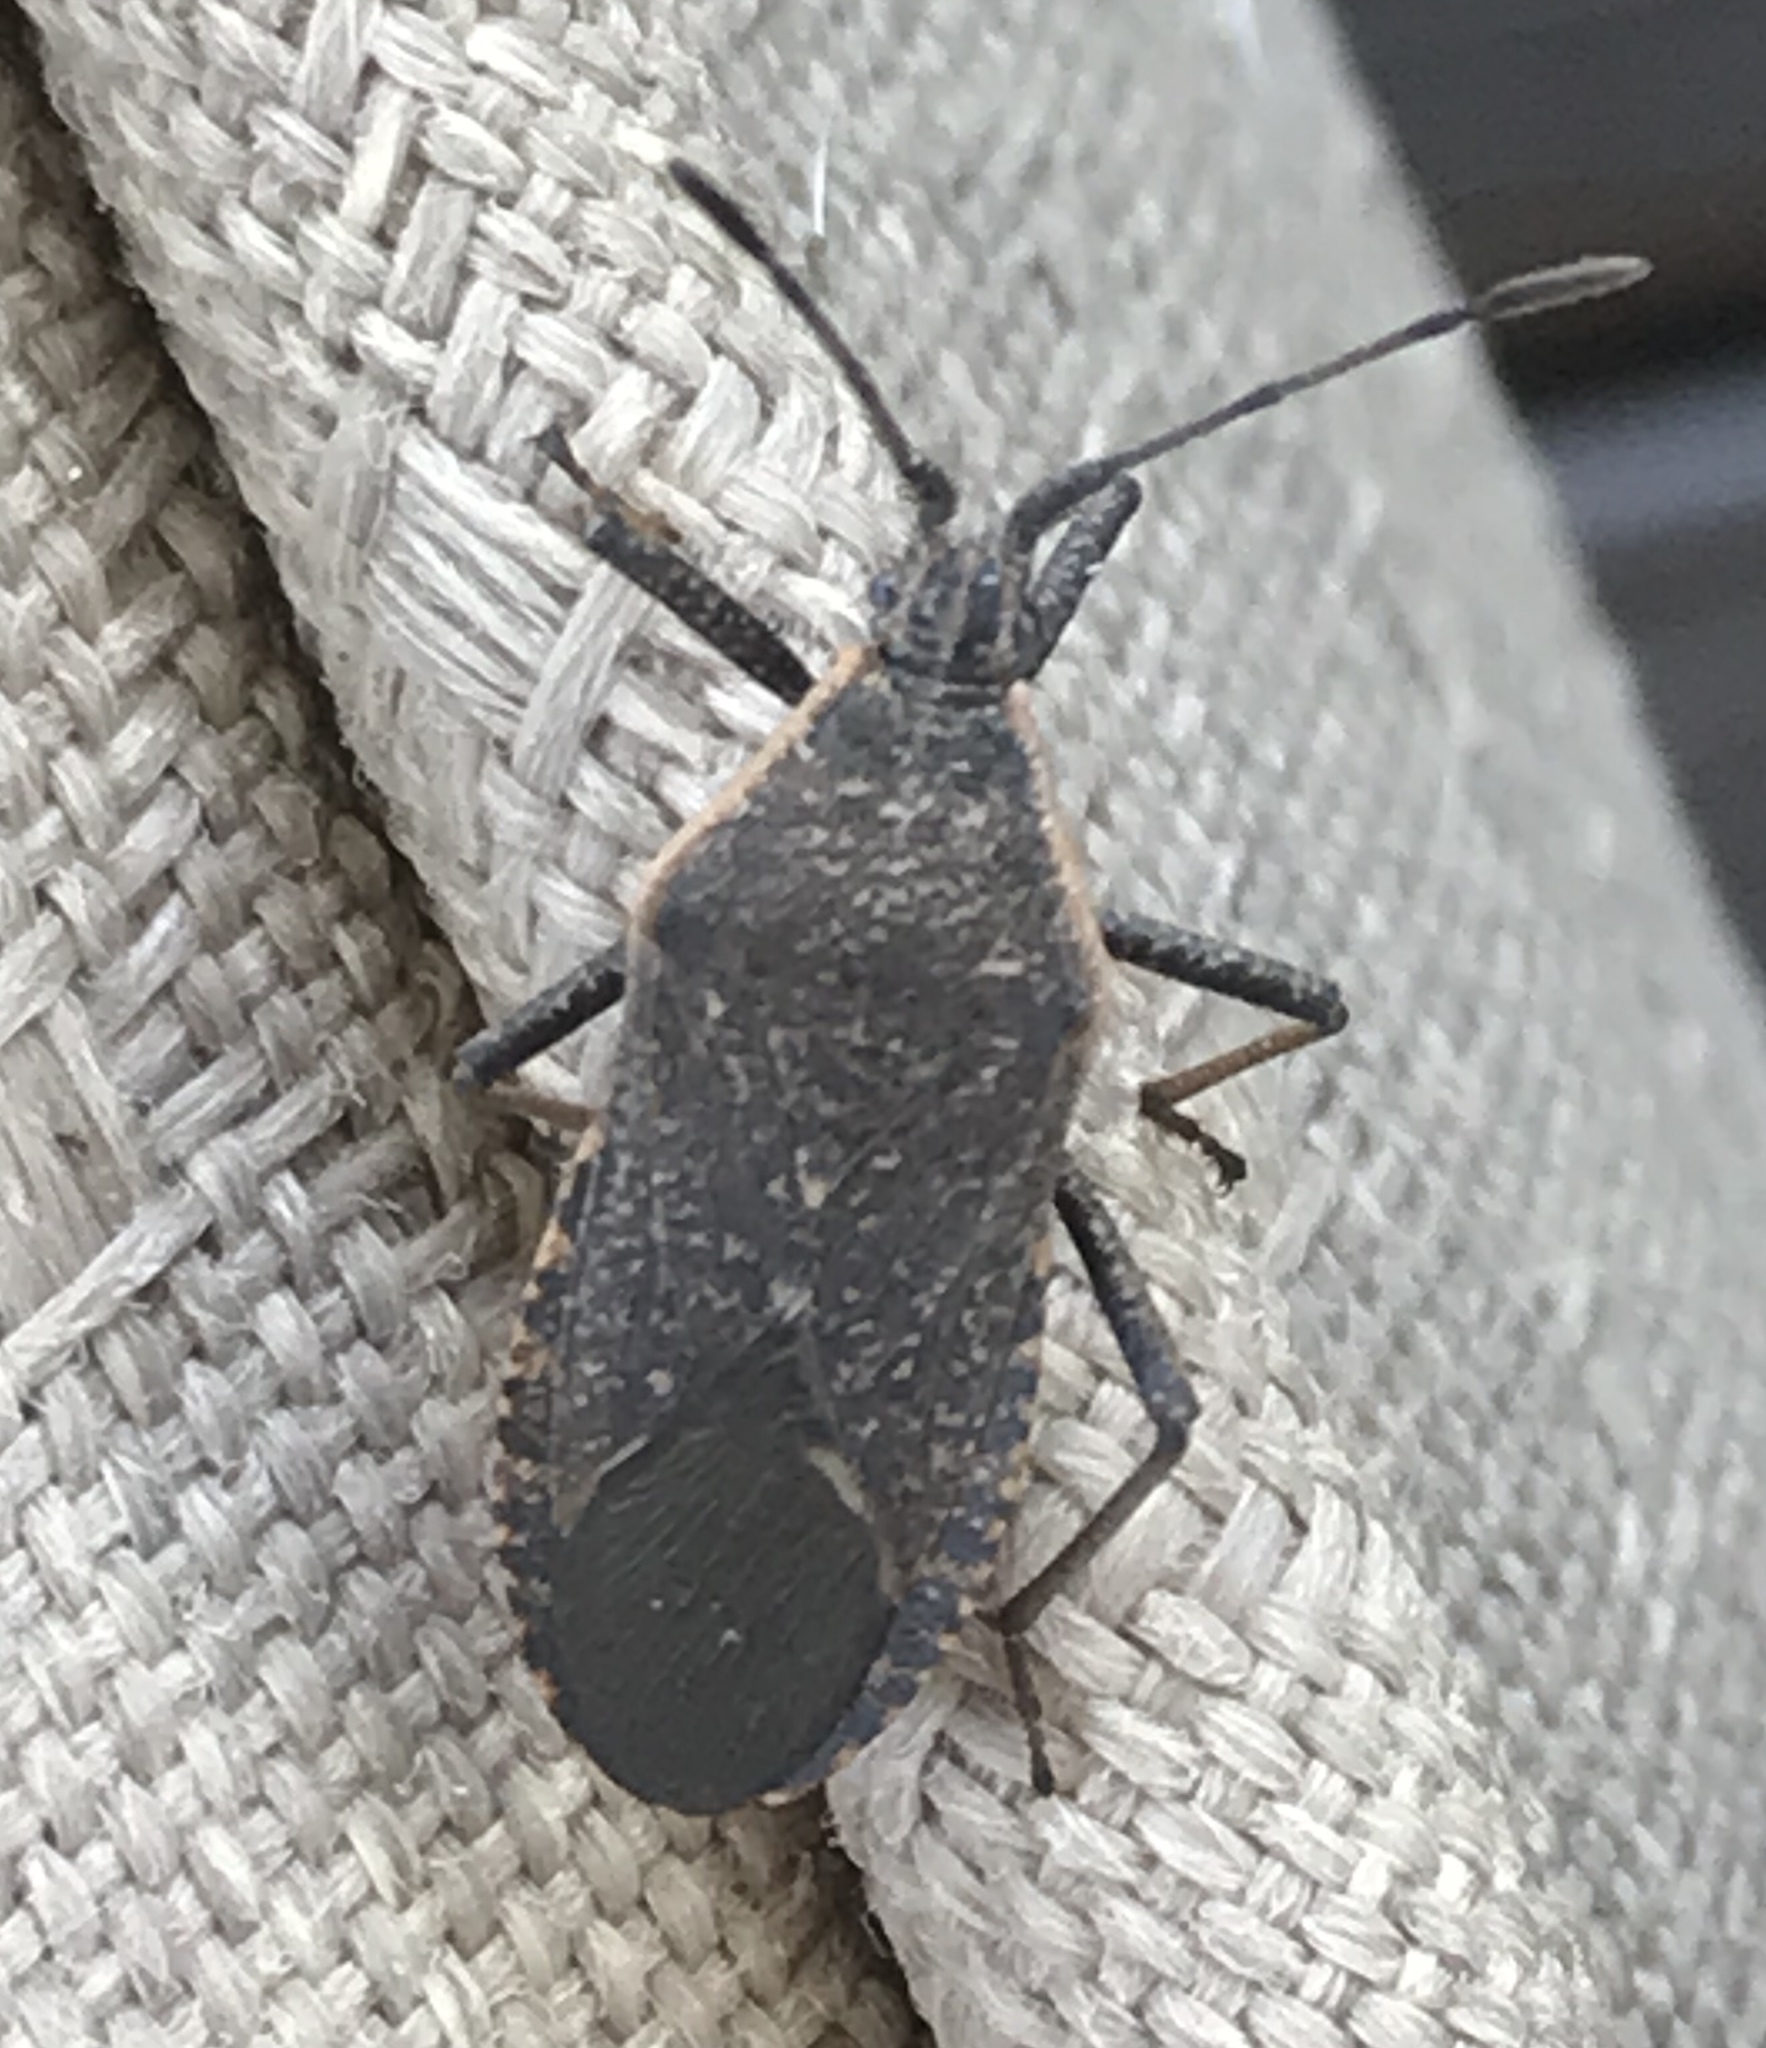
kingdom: Animalia
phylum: Arthropoda
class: Insecta
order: Hemiptera
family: Coreidae
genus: Anasa
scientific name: Anasa tristis
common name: Squash bug
